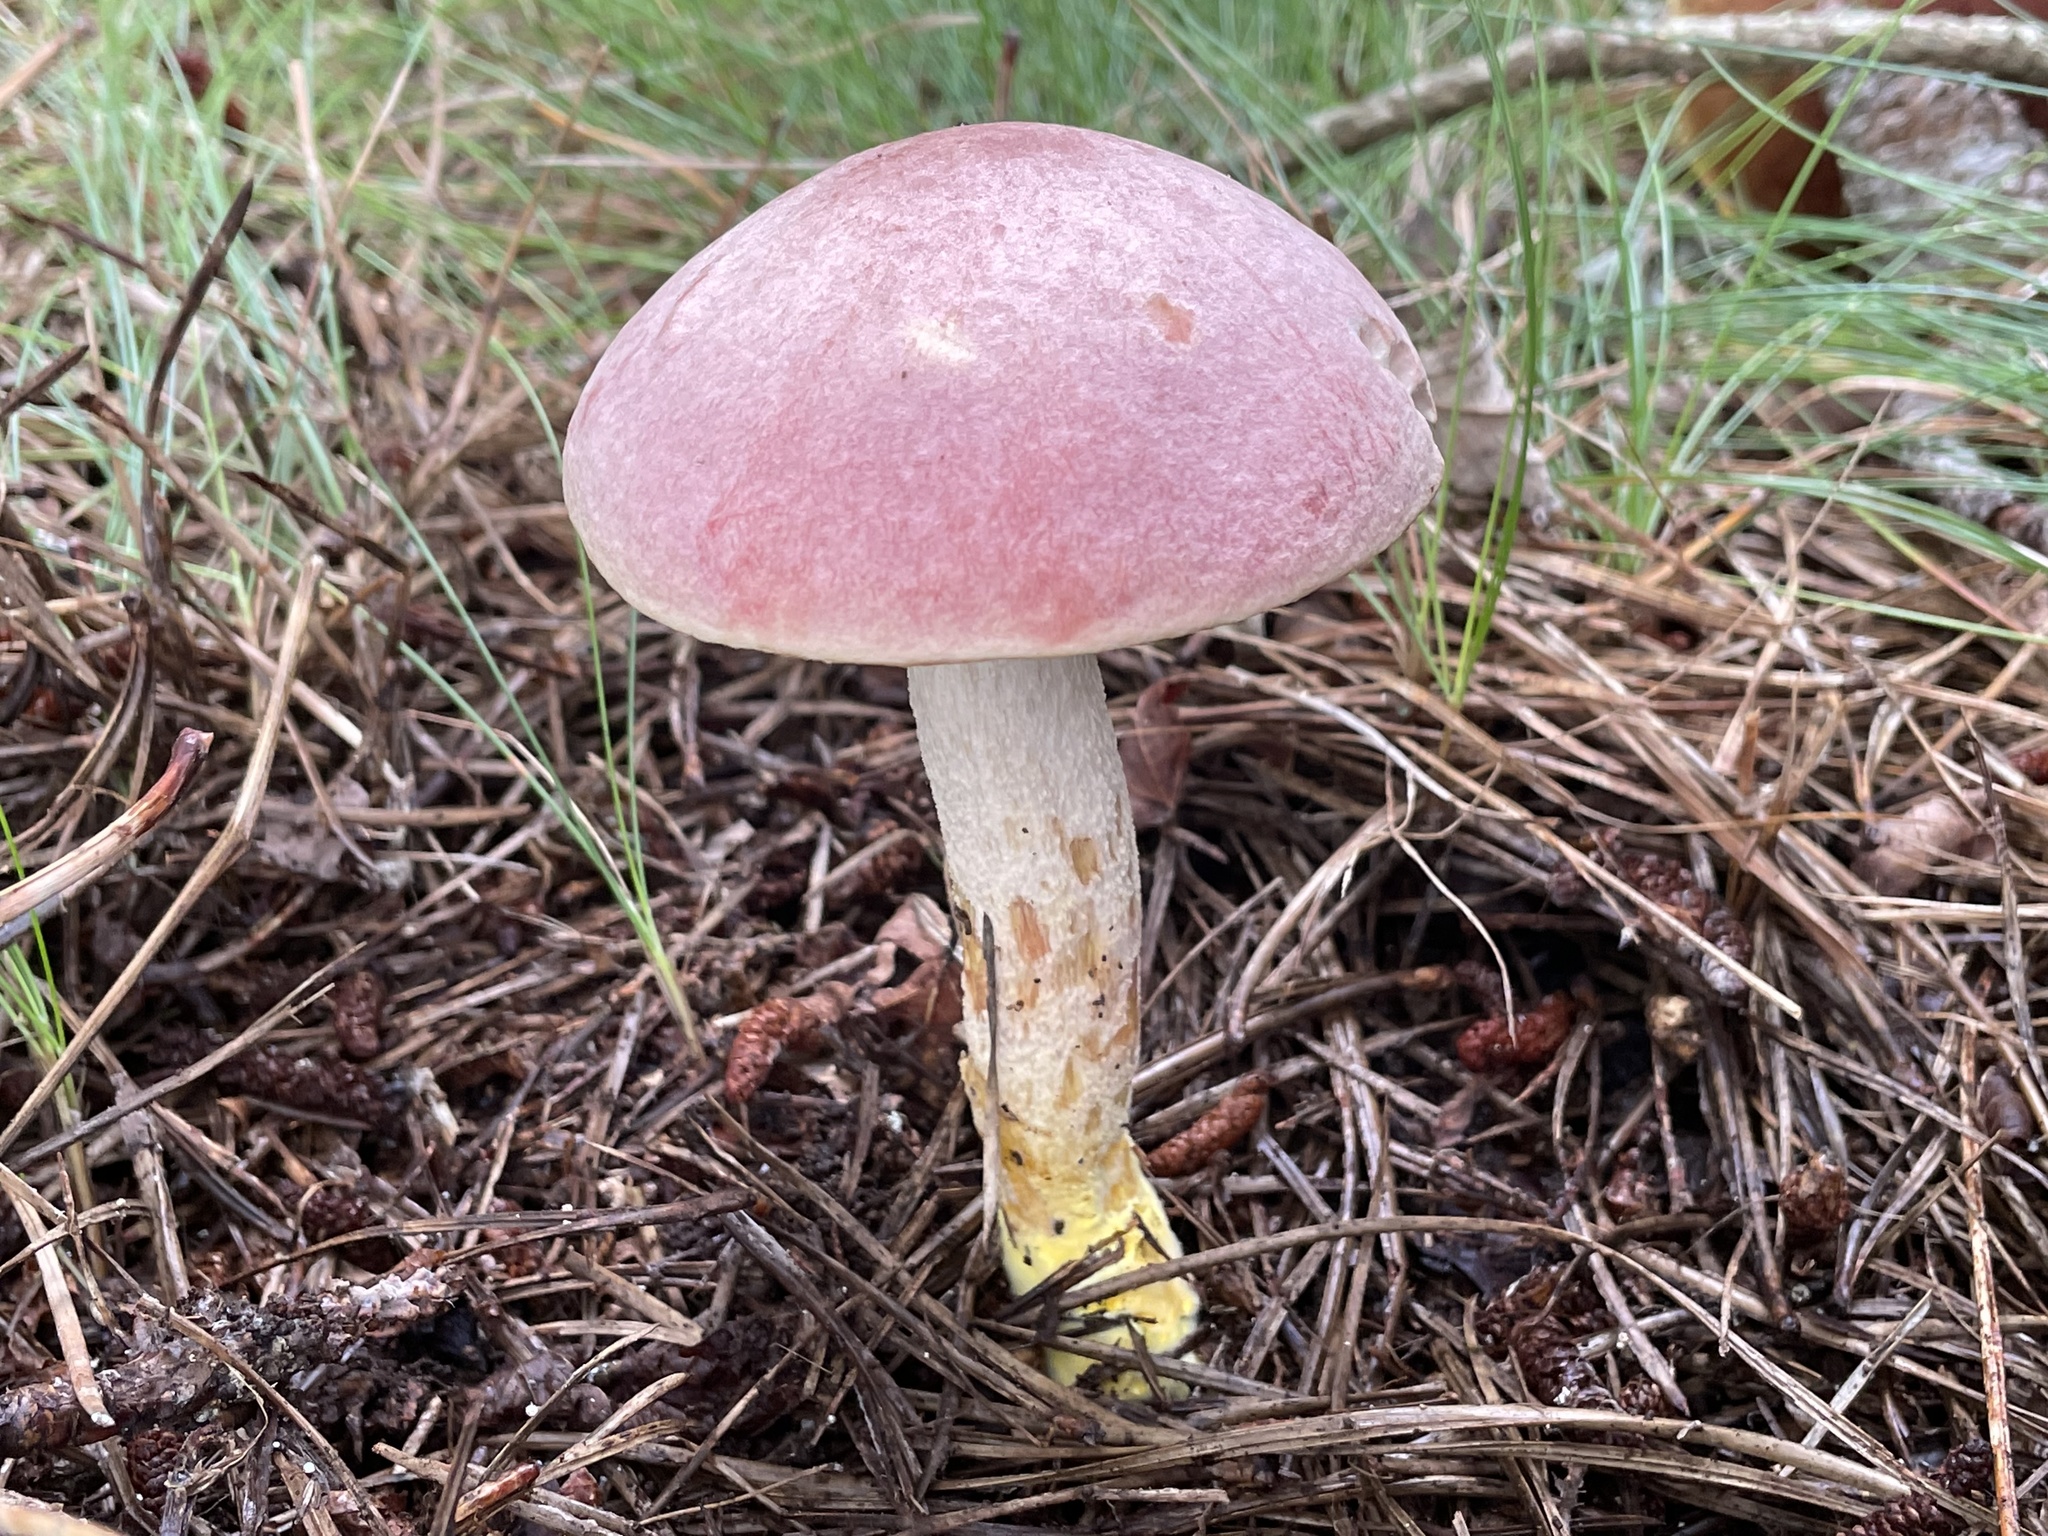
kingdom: Fungi
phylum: Basidiomycota
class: Agaricomycetes
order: Boletales
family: Boletaceae
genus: Harrya
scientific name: Harrya chromipes
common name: Chrome-footed bolete
